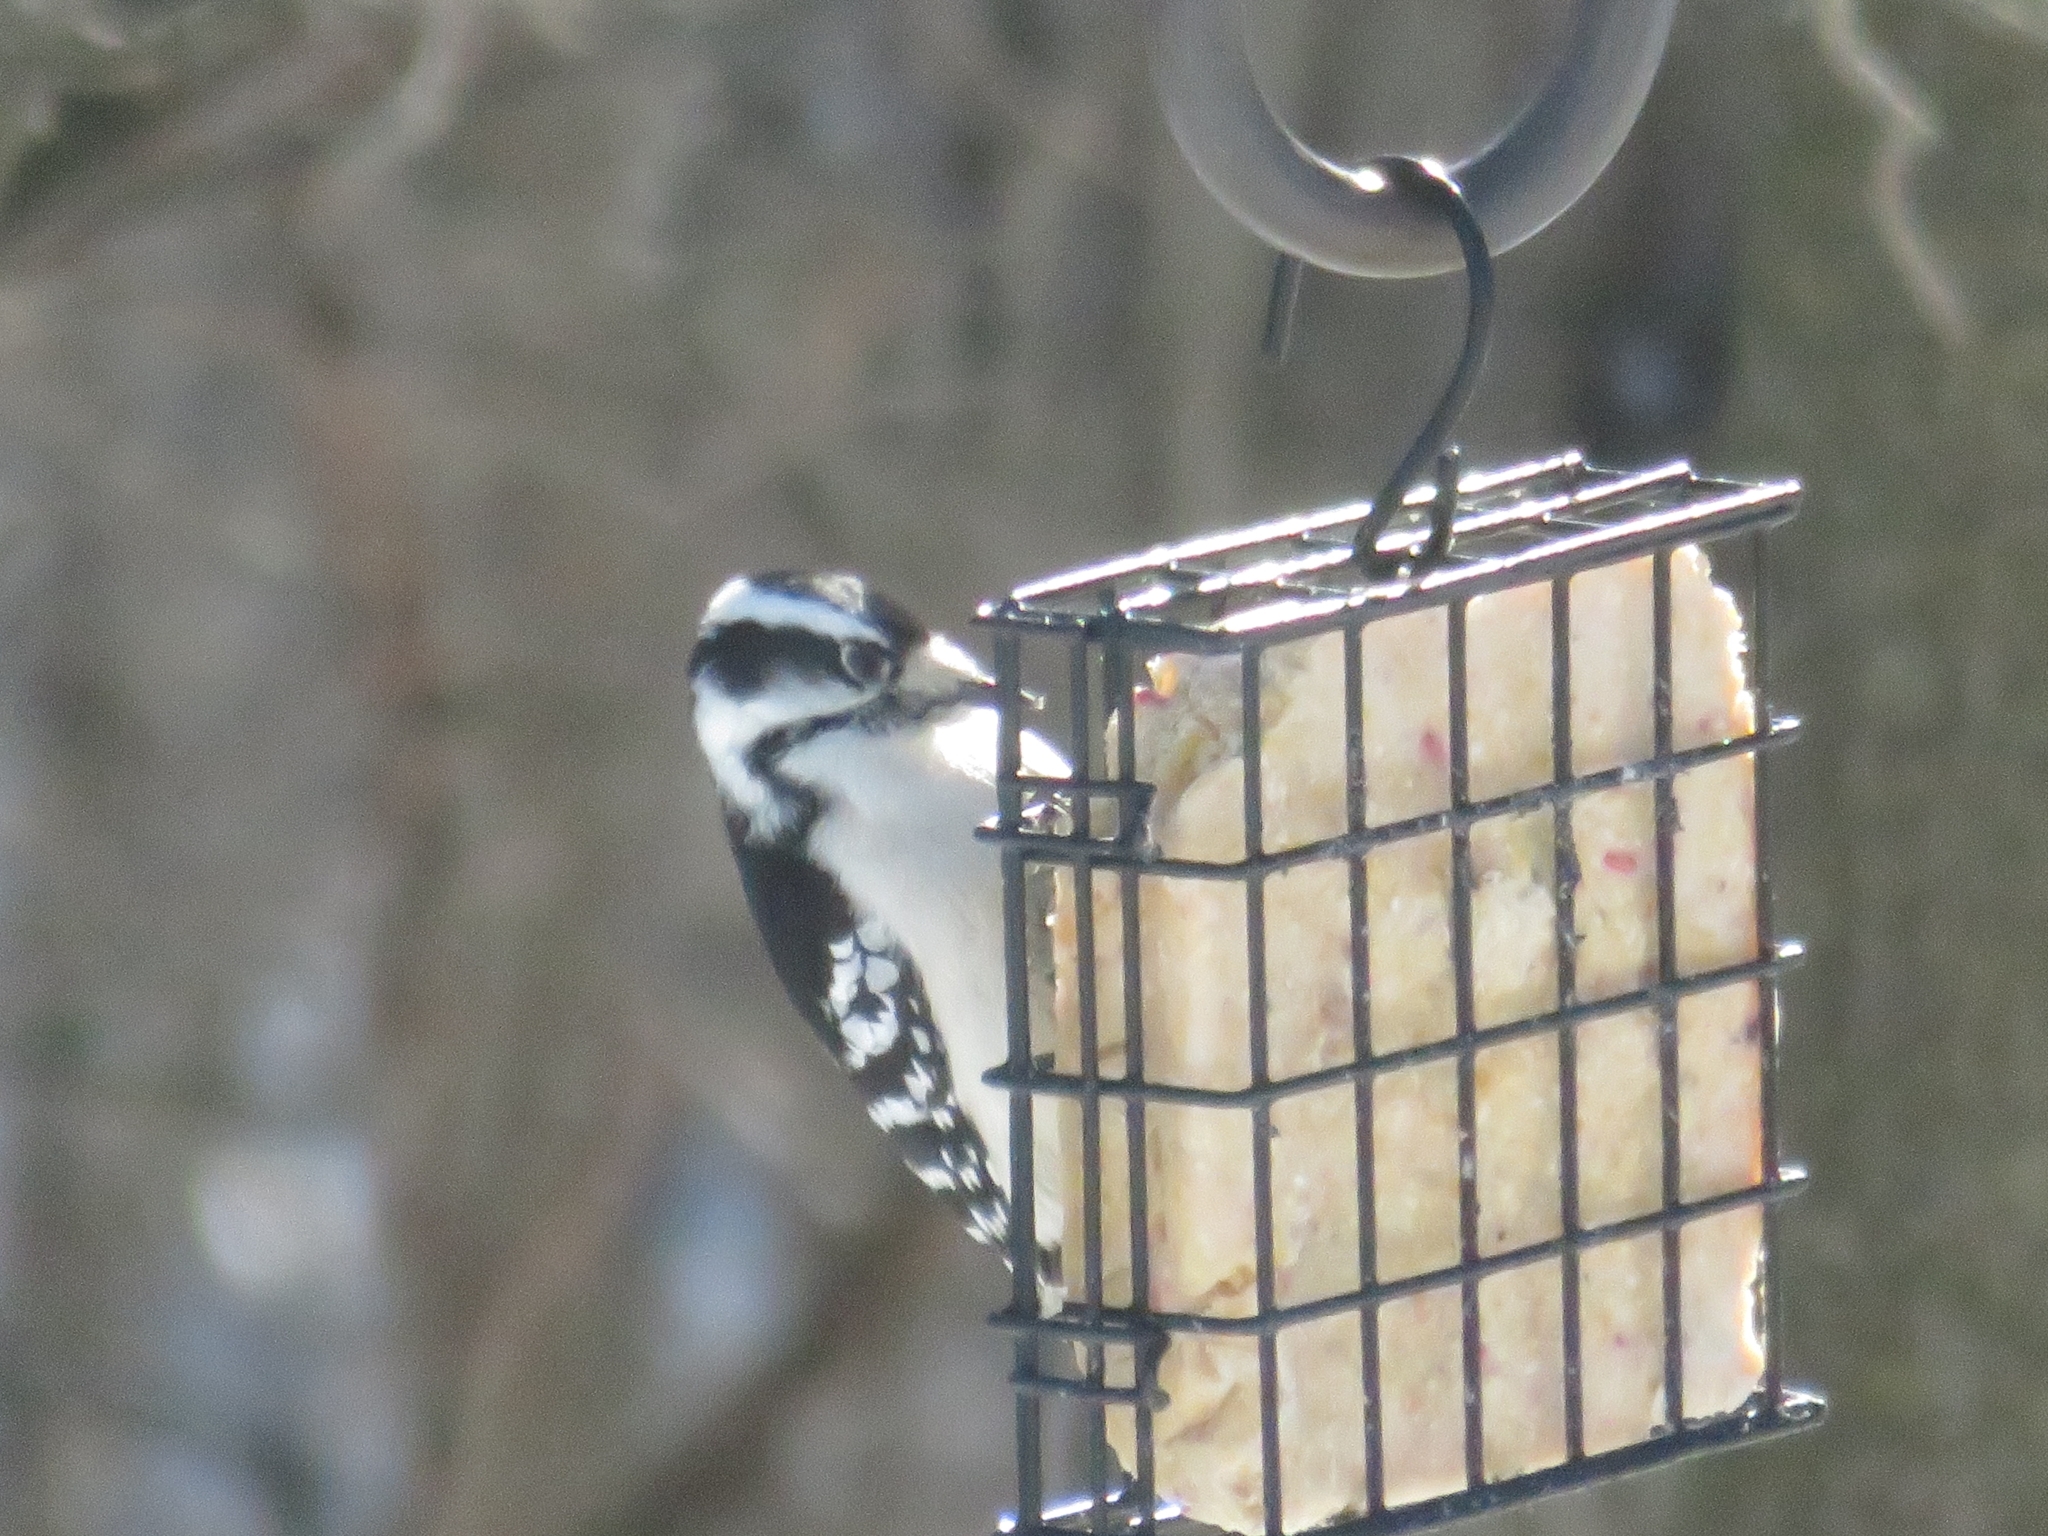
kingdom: Animalia
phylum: Chordata
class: Aves
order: Piciformes
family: Picidae
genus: Dryobates
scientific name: Dryobates pubescens
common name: Downy woodpecker
